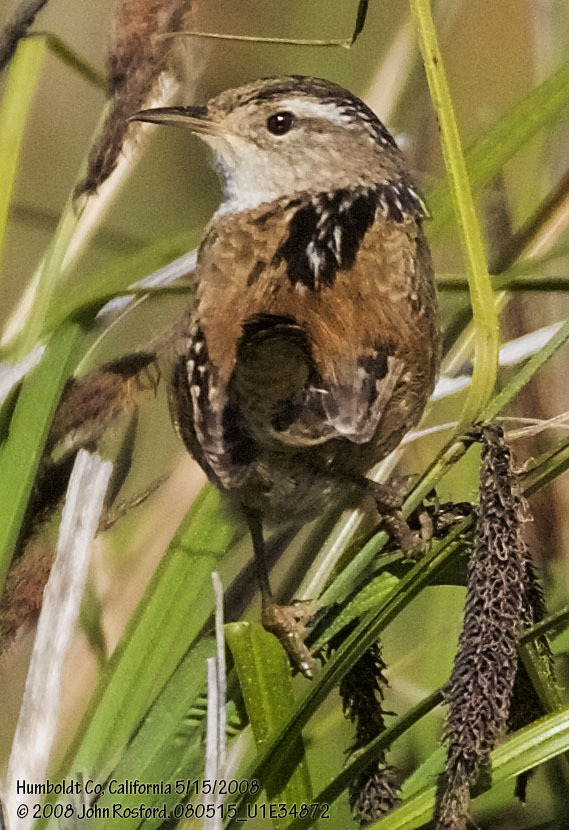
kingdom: Animalia
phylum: Chordata
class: Aves
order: Passeriformes
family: Troglodytidae
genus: Cistothorus
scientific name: Cistothorus palustris
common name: Marsh wren
